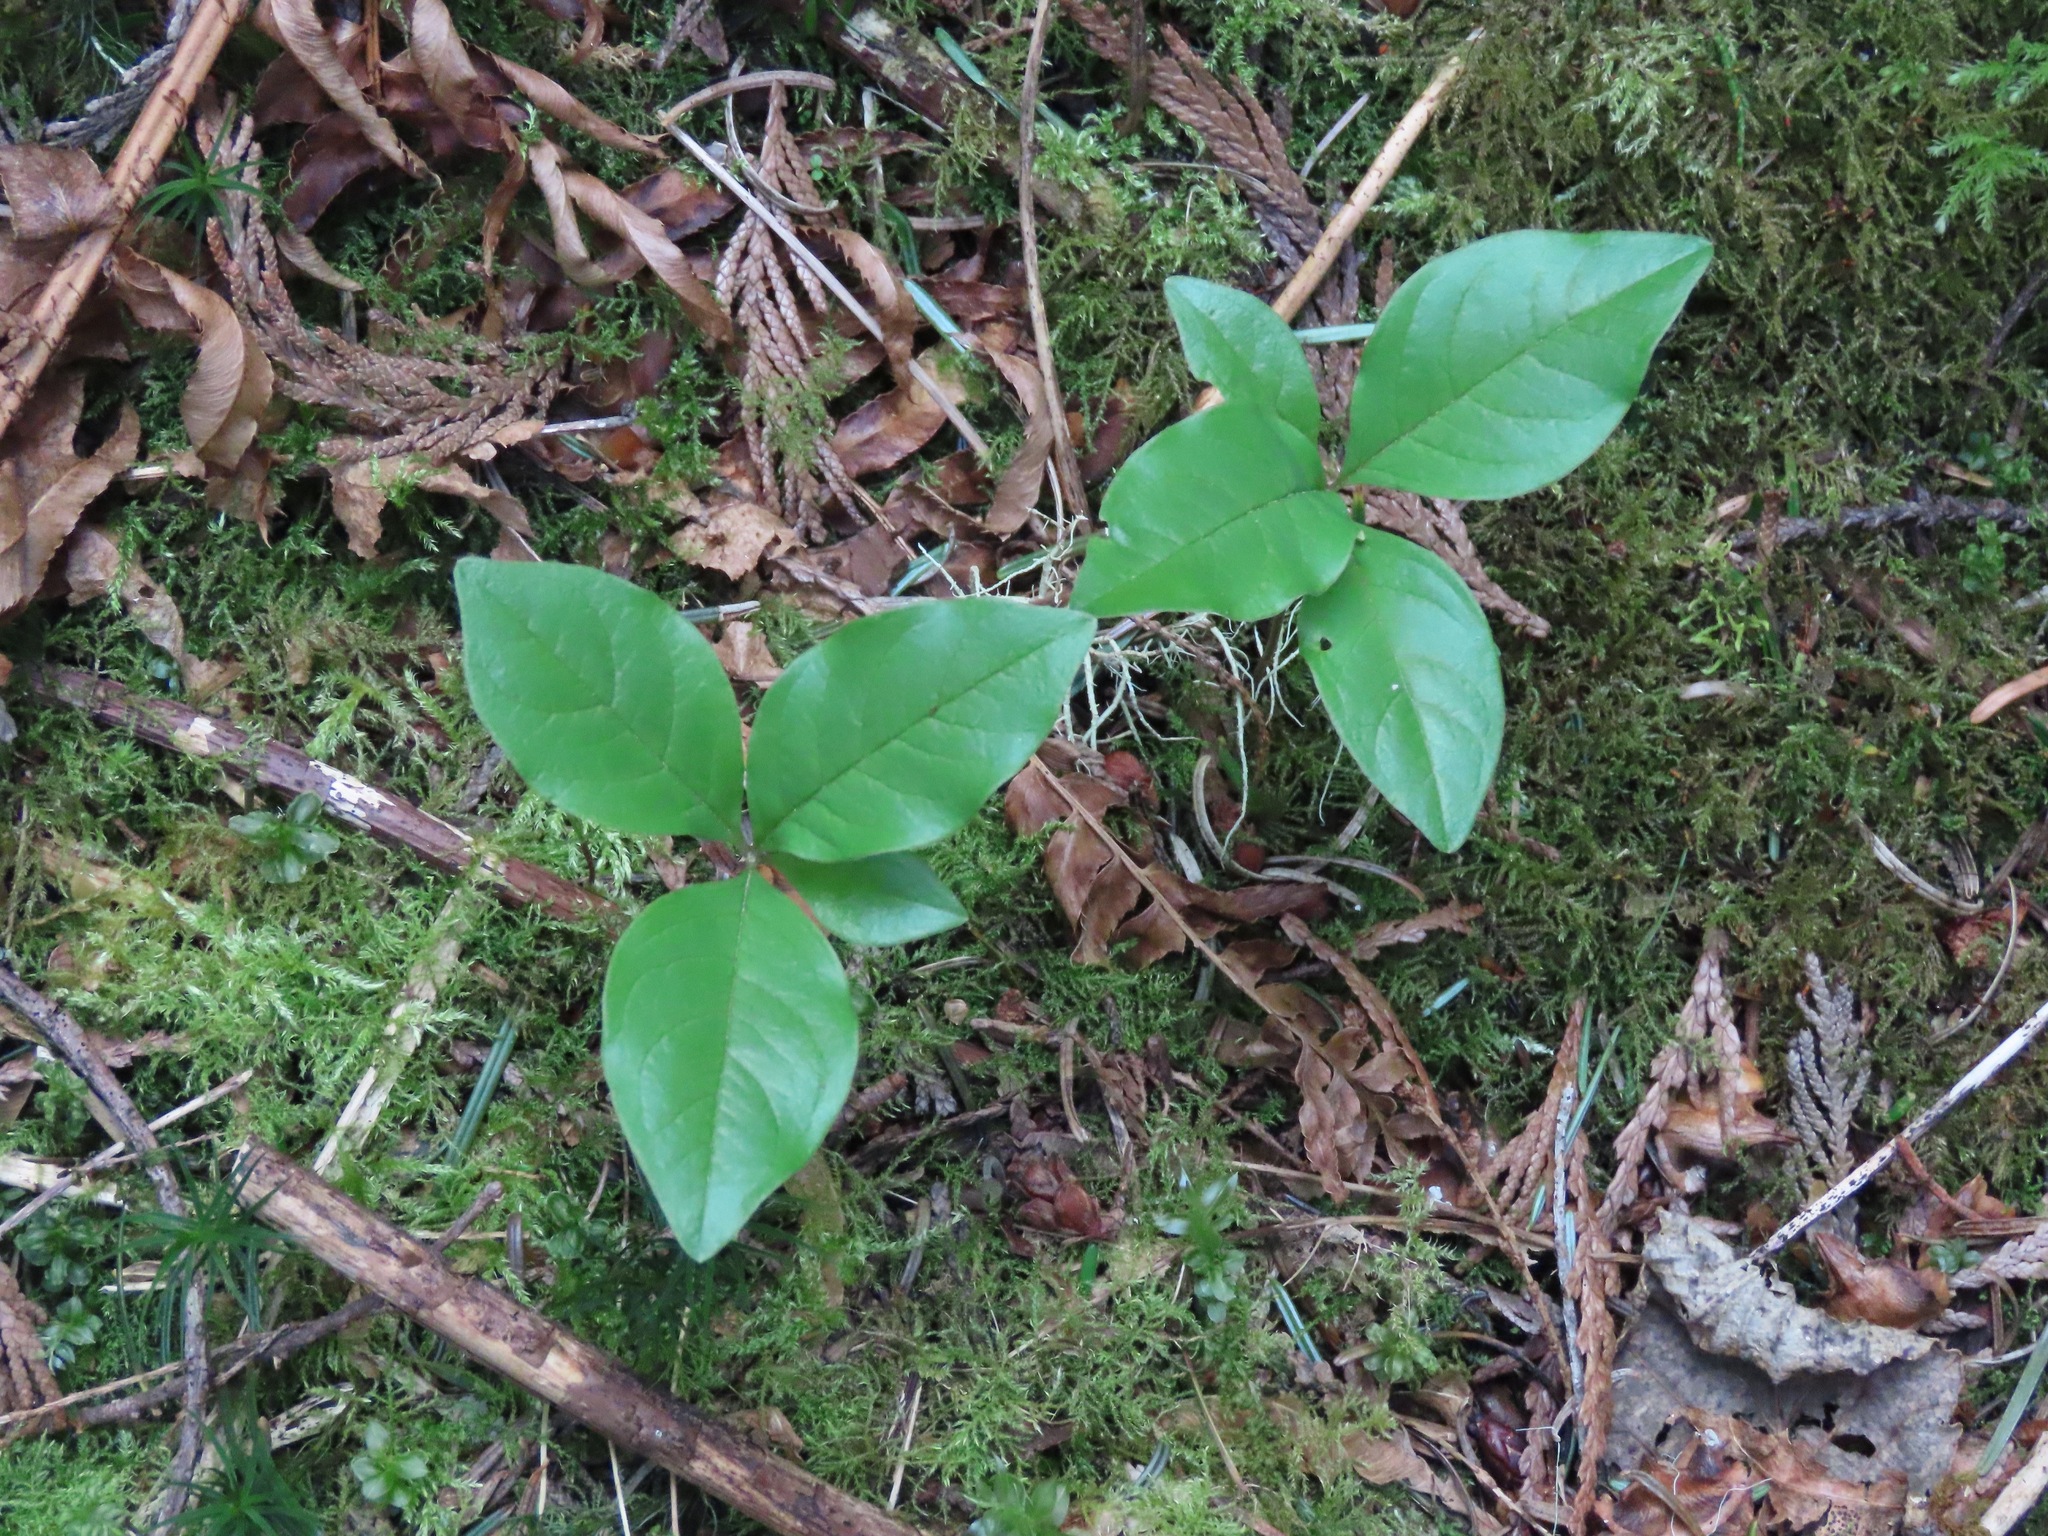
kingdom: Plantae
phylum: Tracheophyta
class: Magnoliopsida
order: Ericales
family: Primulaceae
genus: Lysimachia
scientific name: Lysimachia latifolia
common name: Pacific starflower
